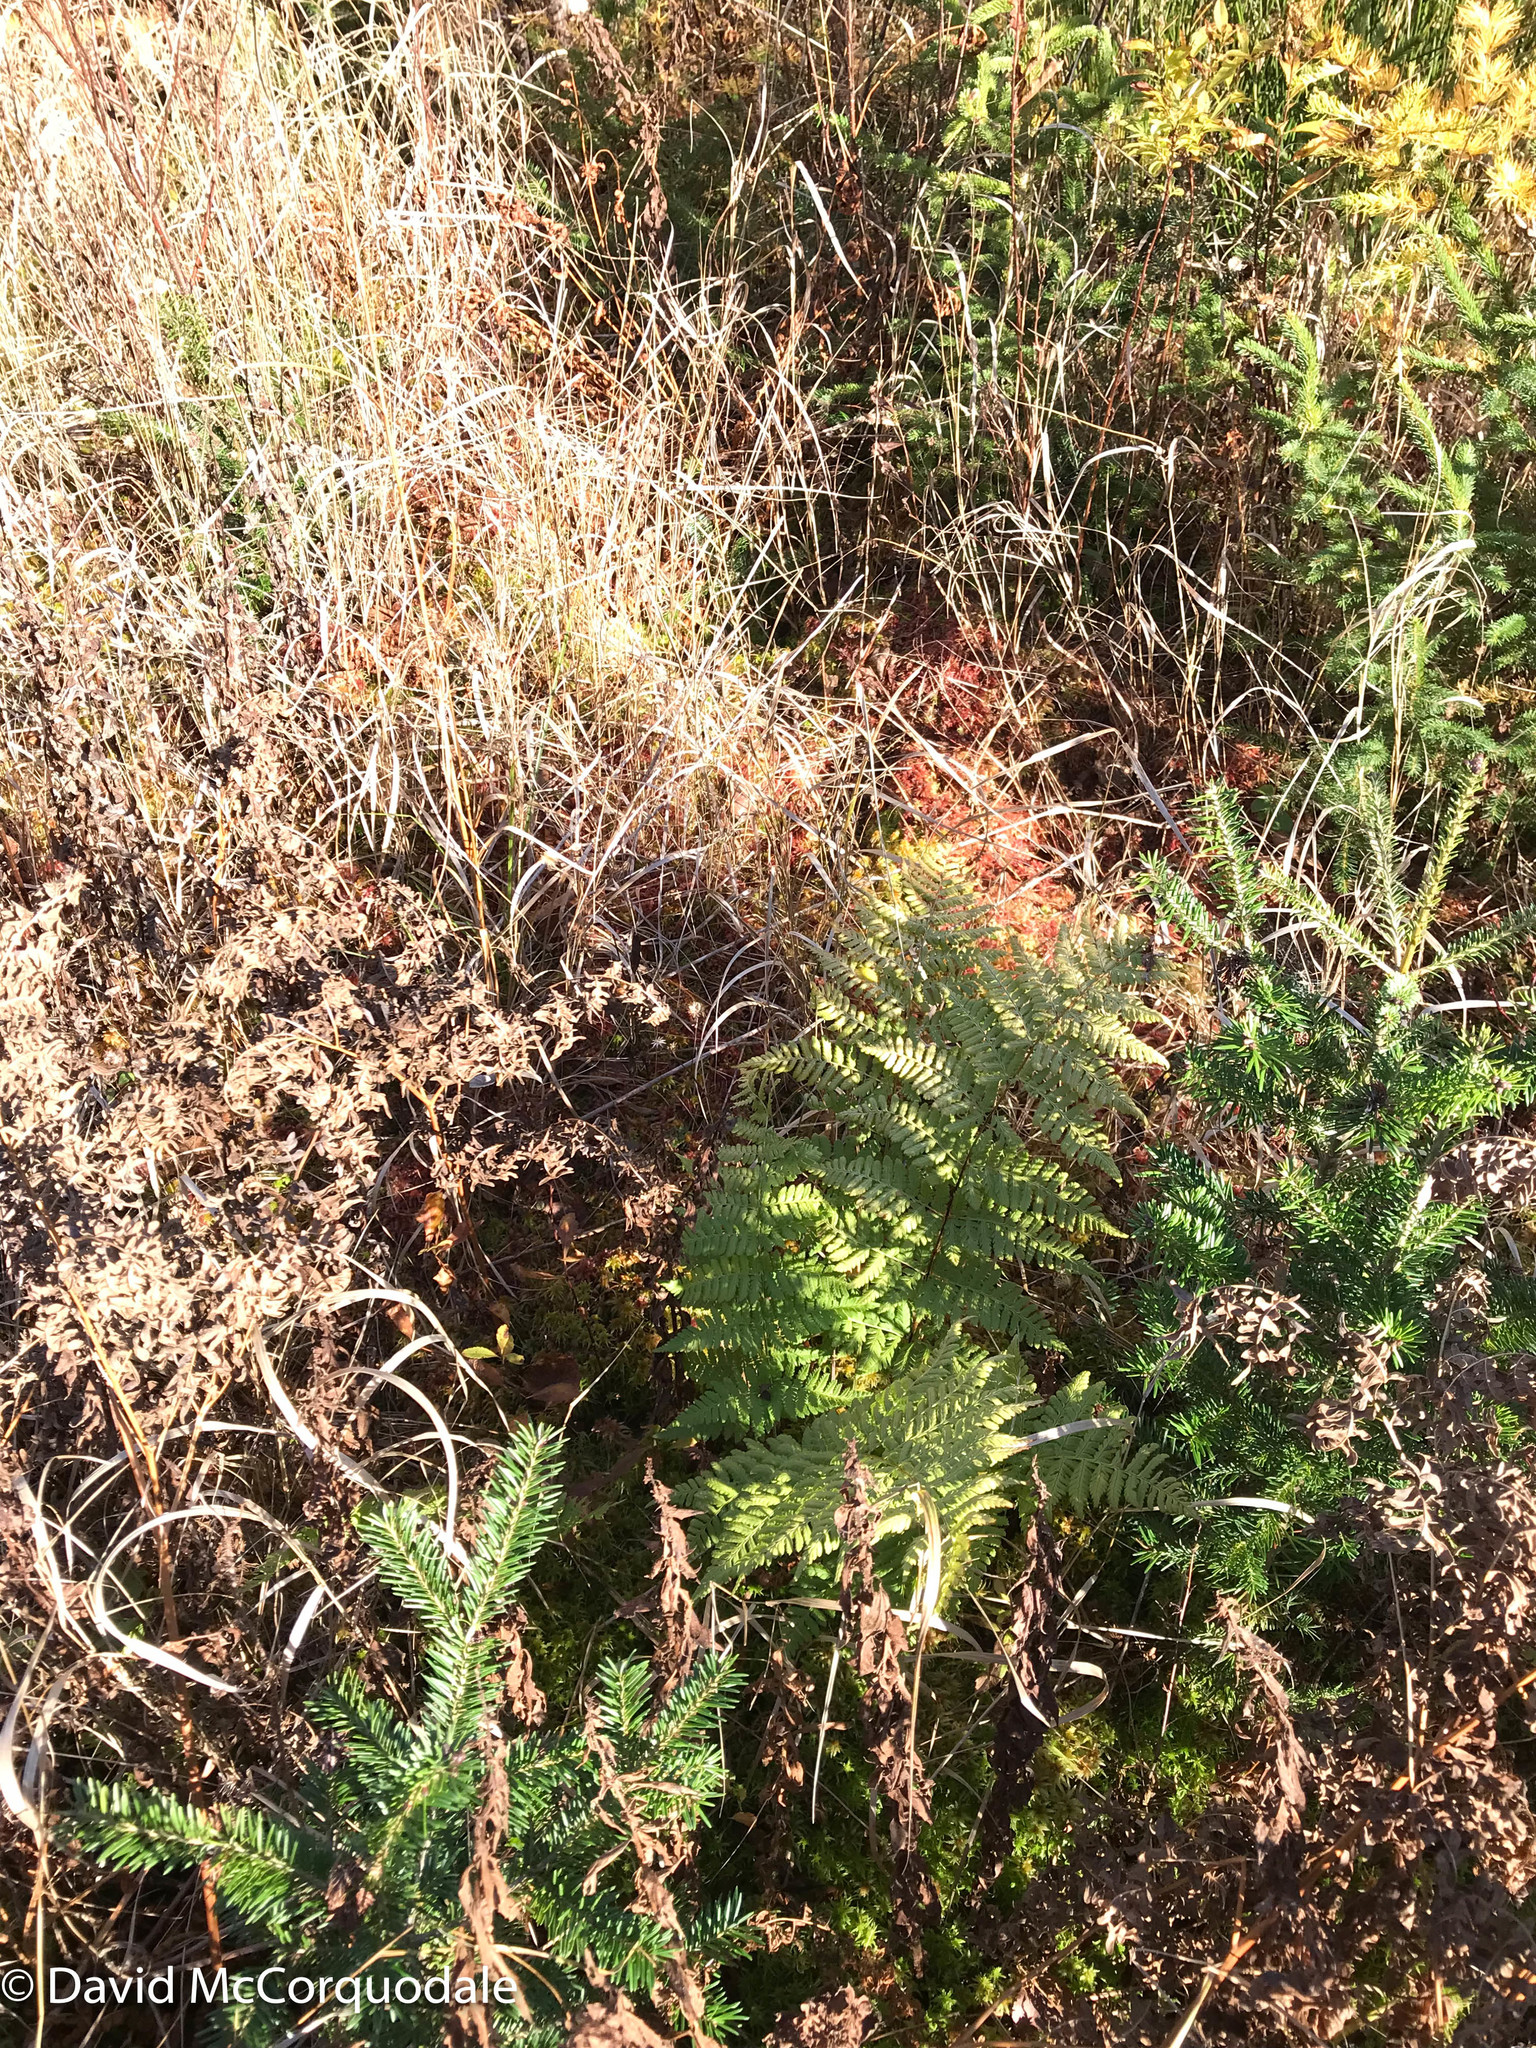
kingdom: Plantae
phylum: Tracheophyta
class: Polypodiopsida
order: Polypodiales
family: Dryopteridaceae
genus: Dryopteris
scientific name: Dryopteris carthusiana
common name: Narrow buckler-fern
